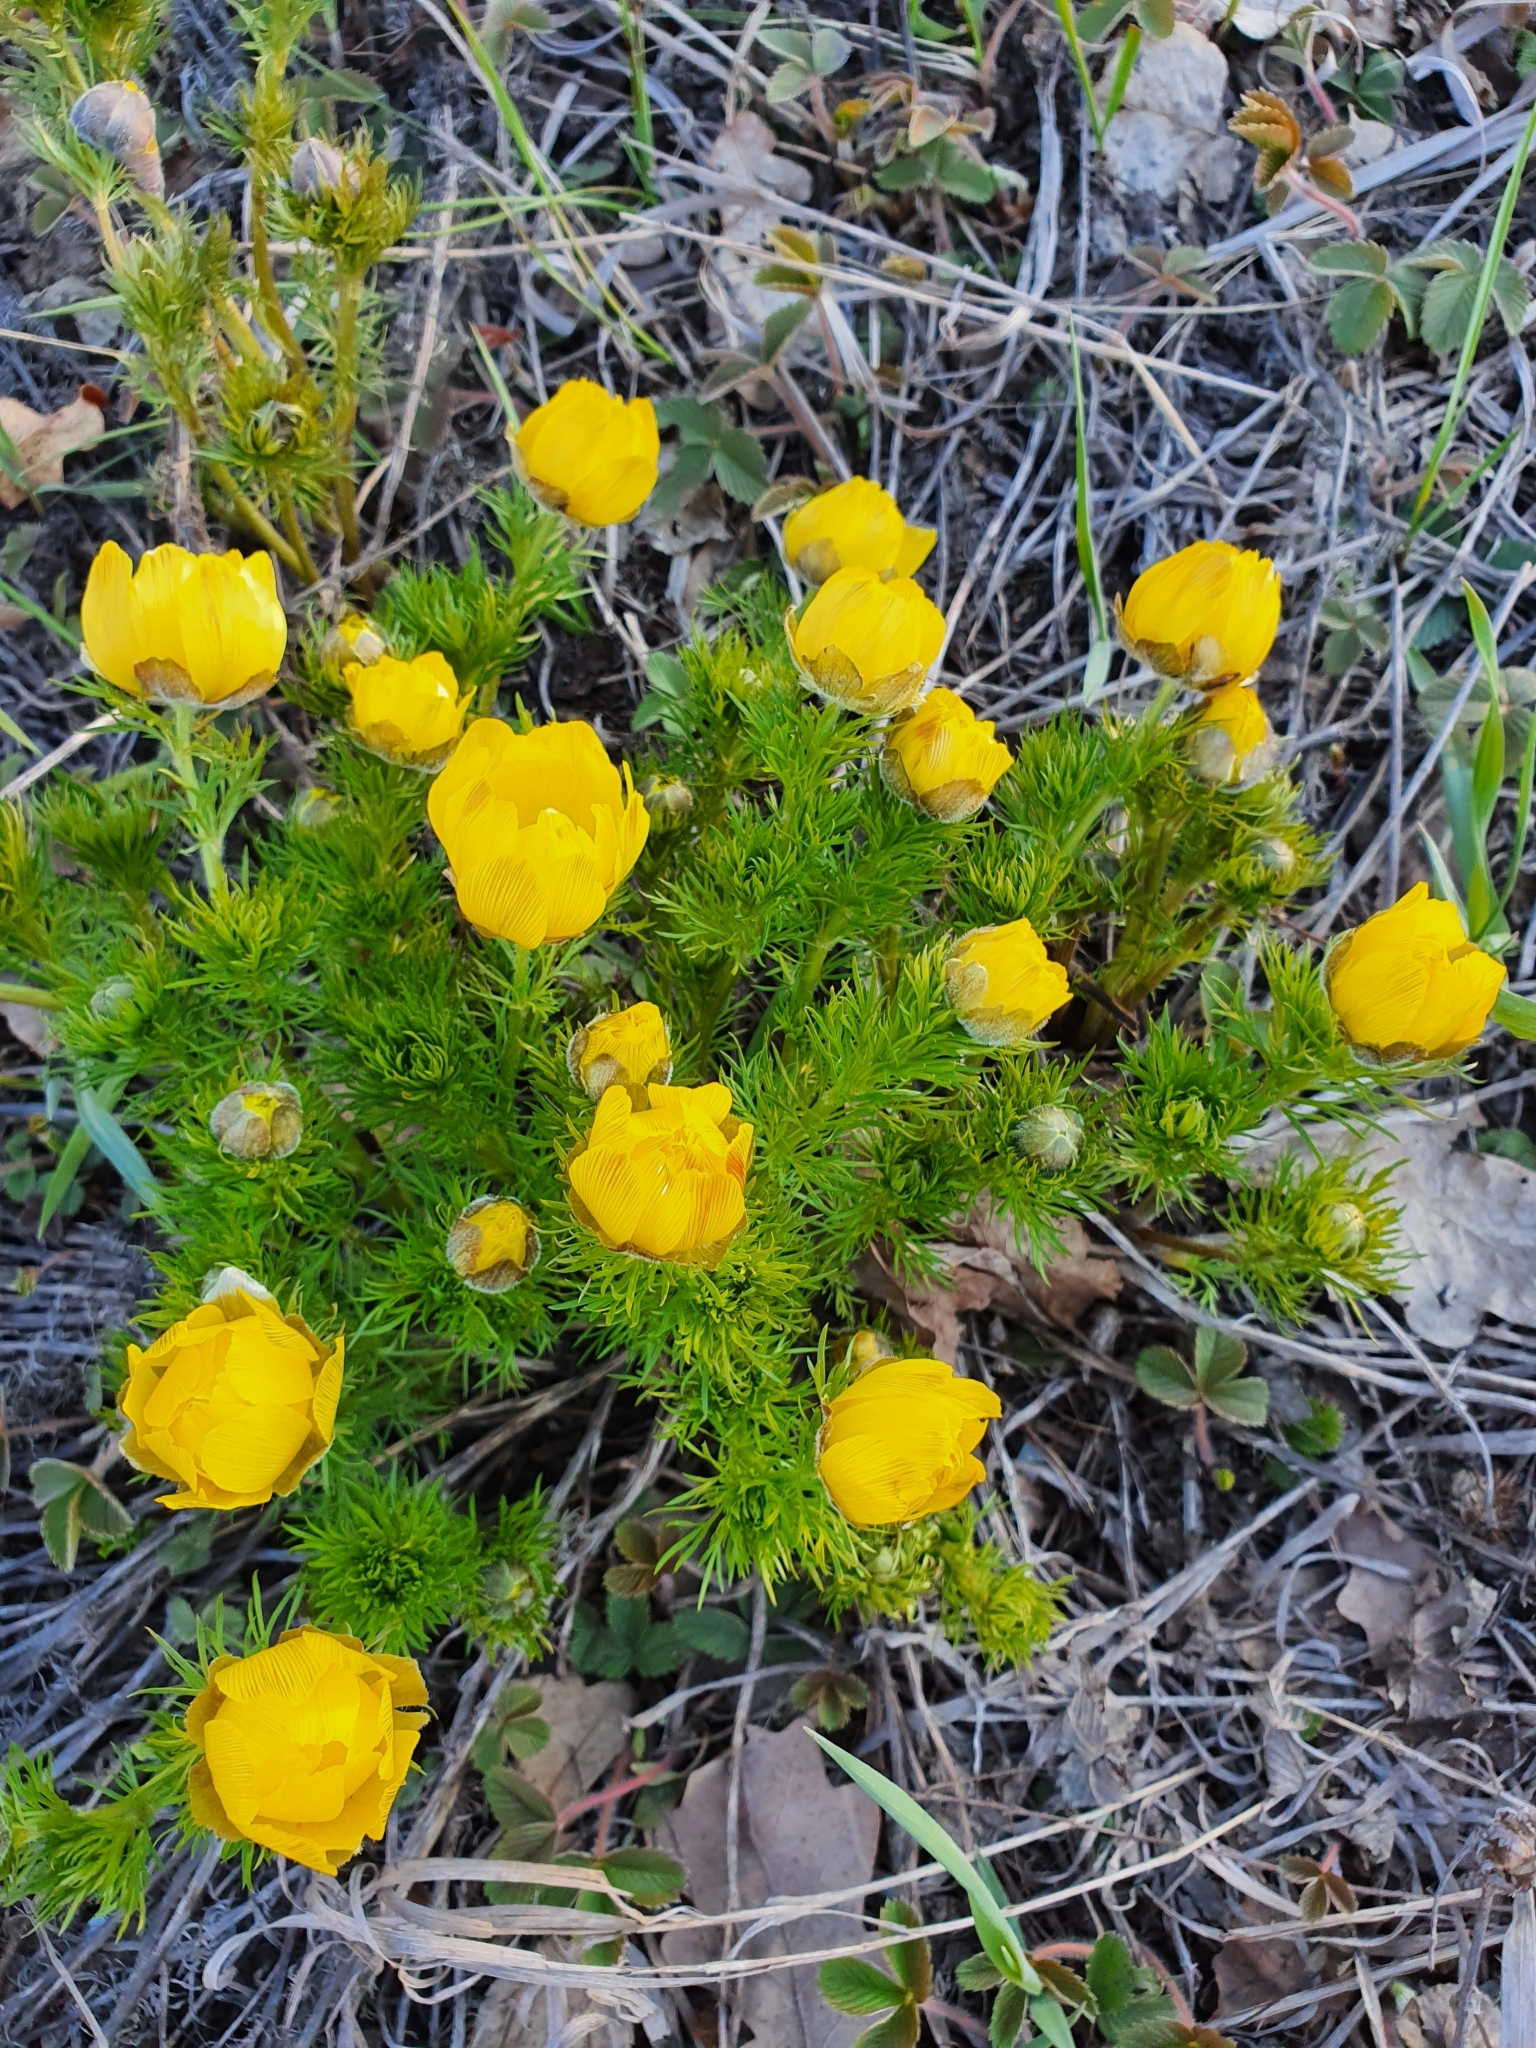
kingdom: Plantae
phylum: Tracheophyta
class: Magnoliopsida
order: Ranunculales
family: Ranunculaceae
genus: Adonis
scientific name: Adonis vernalis
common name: Yellow pheasants-eye
